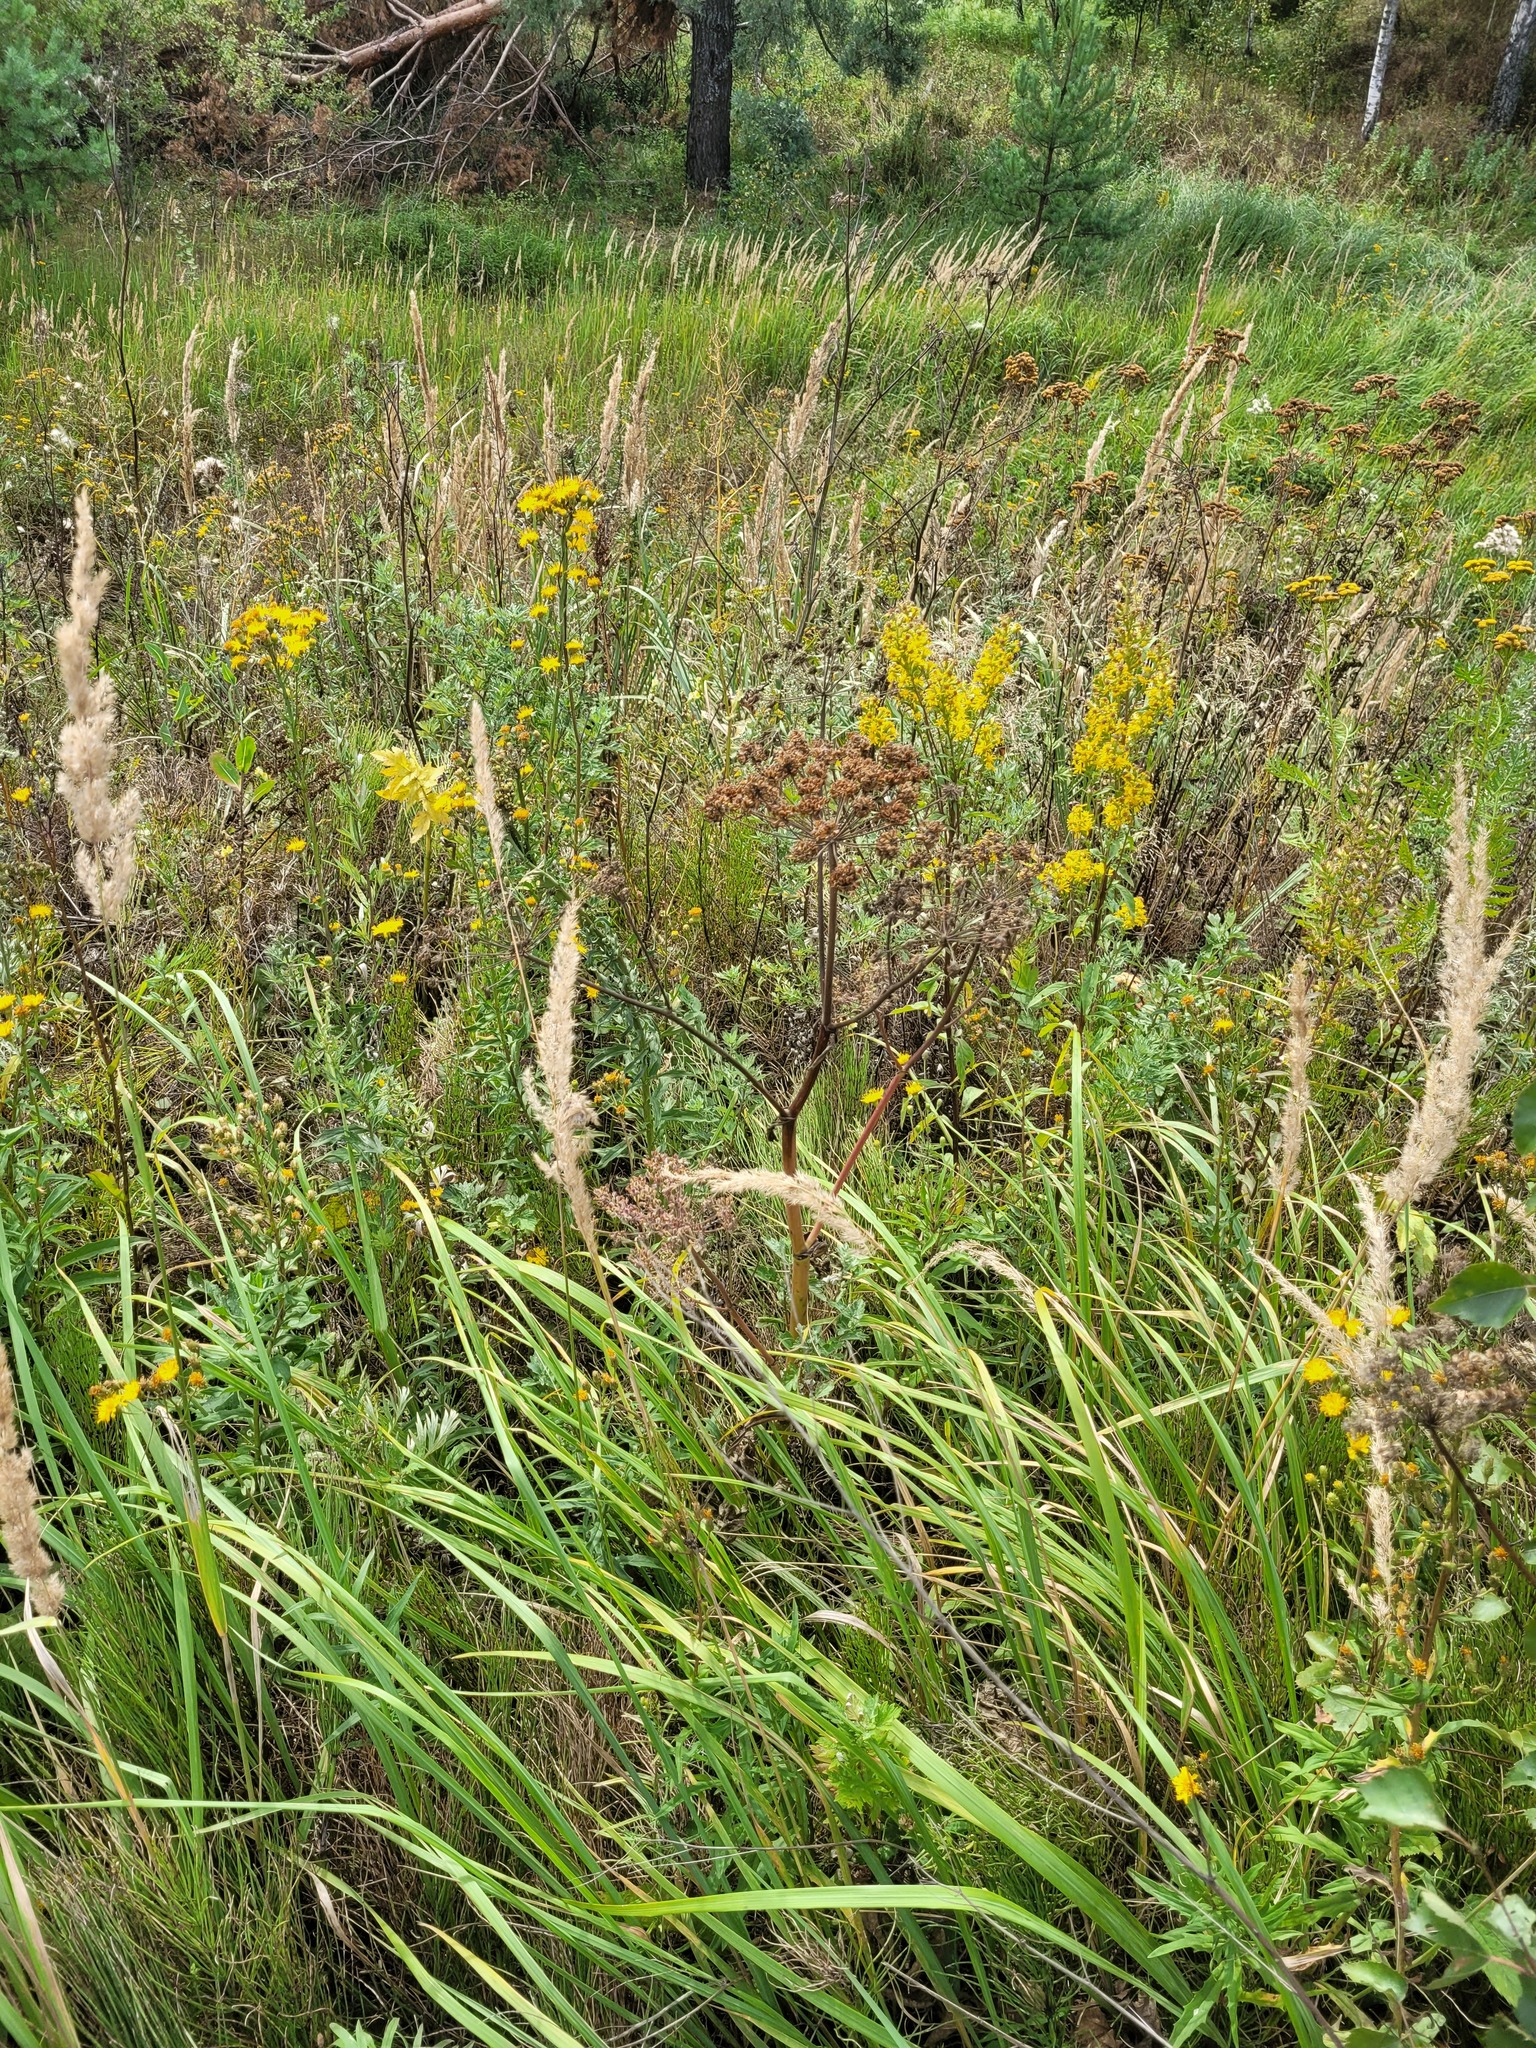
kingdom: Plantae
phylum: Tracheophyta
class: Magnoliopsida
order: Apiales
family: Apiaceae
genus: Angelica
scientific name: Angelica sylvestris
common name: Wild angelica
